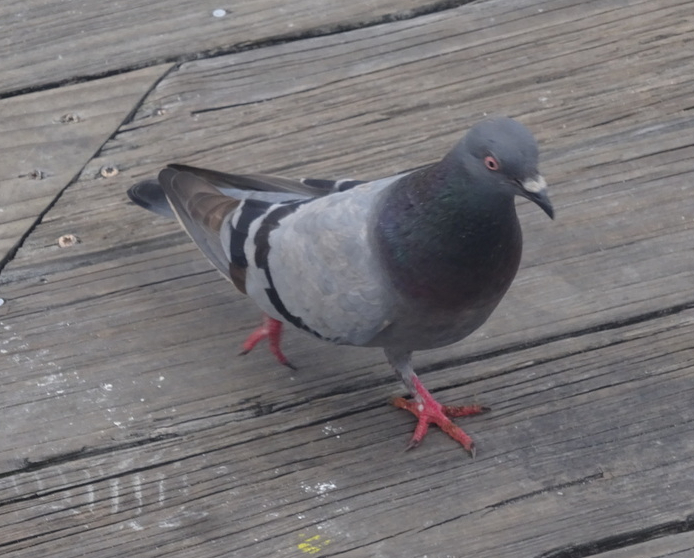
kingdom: Animalia
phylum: Chordata
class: Aves
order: Columbiformes
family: Columbidae
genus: Columba
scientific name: Columba livia
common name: Rock pigeon
